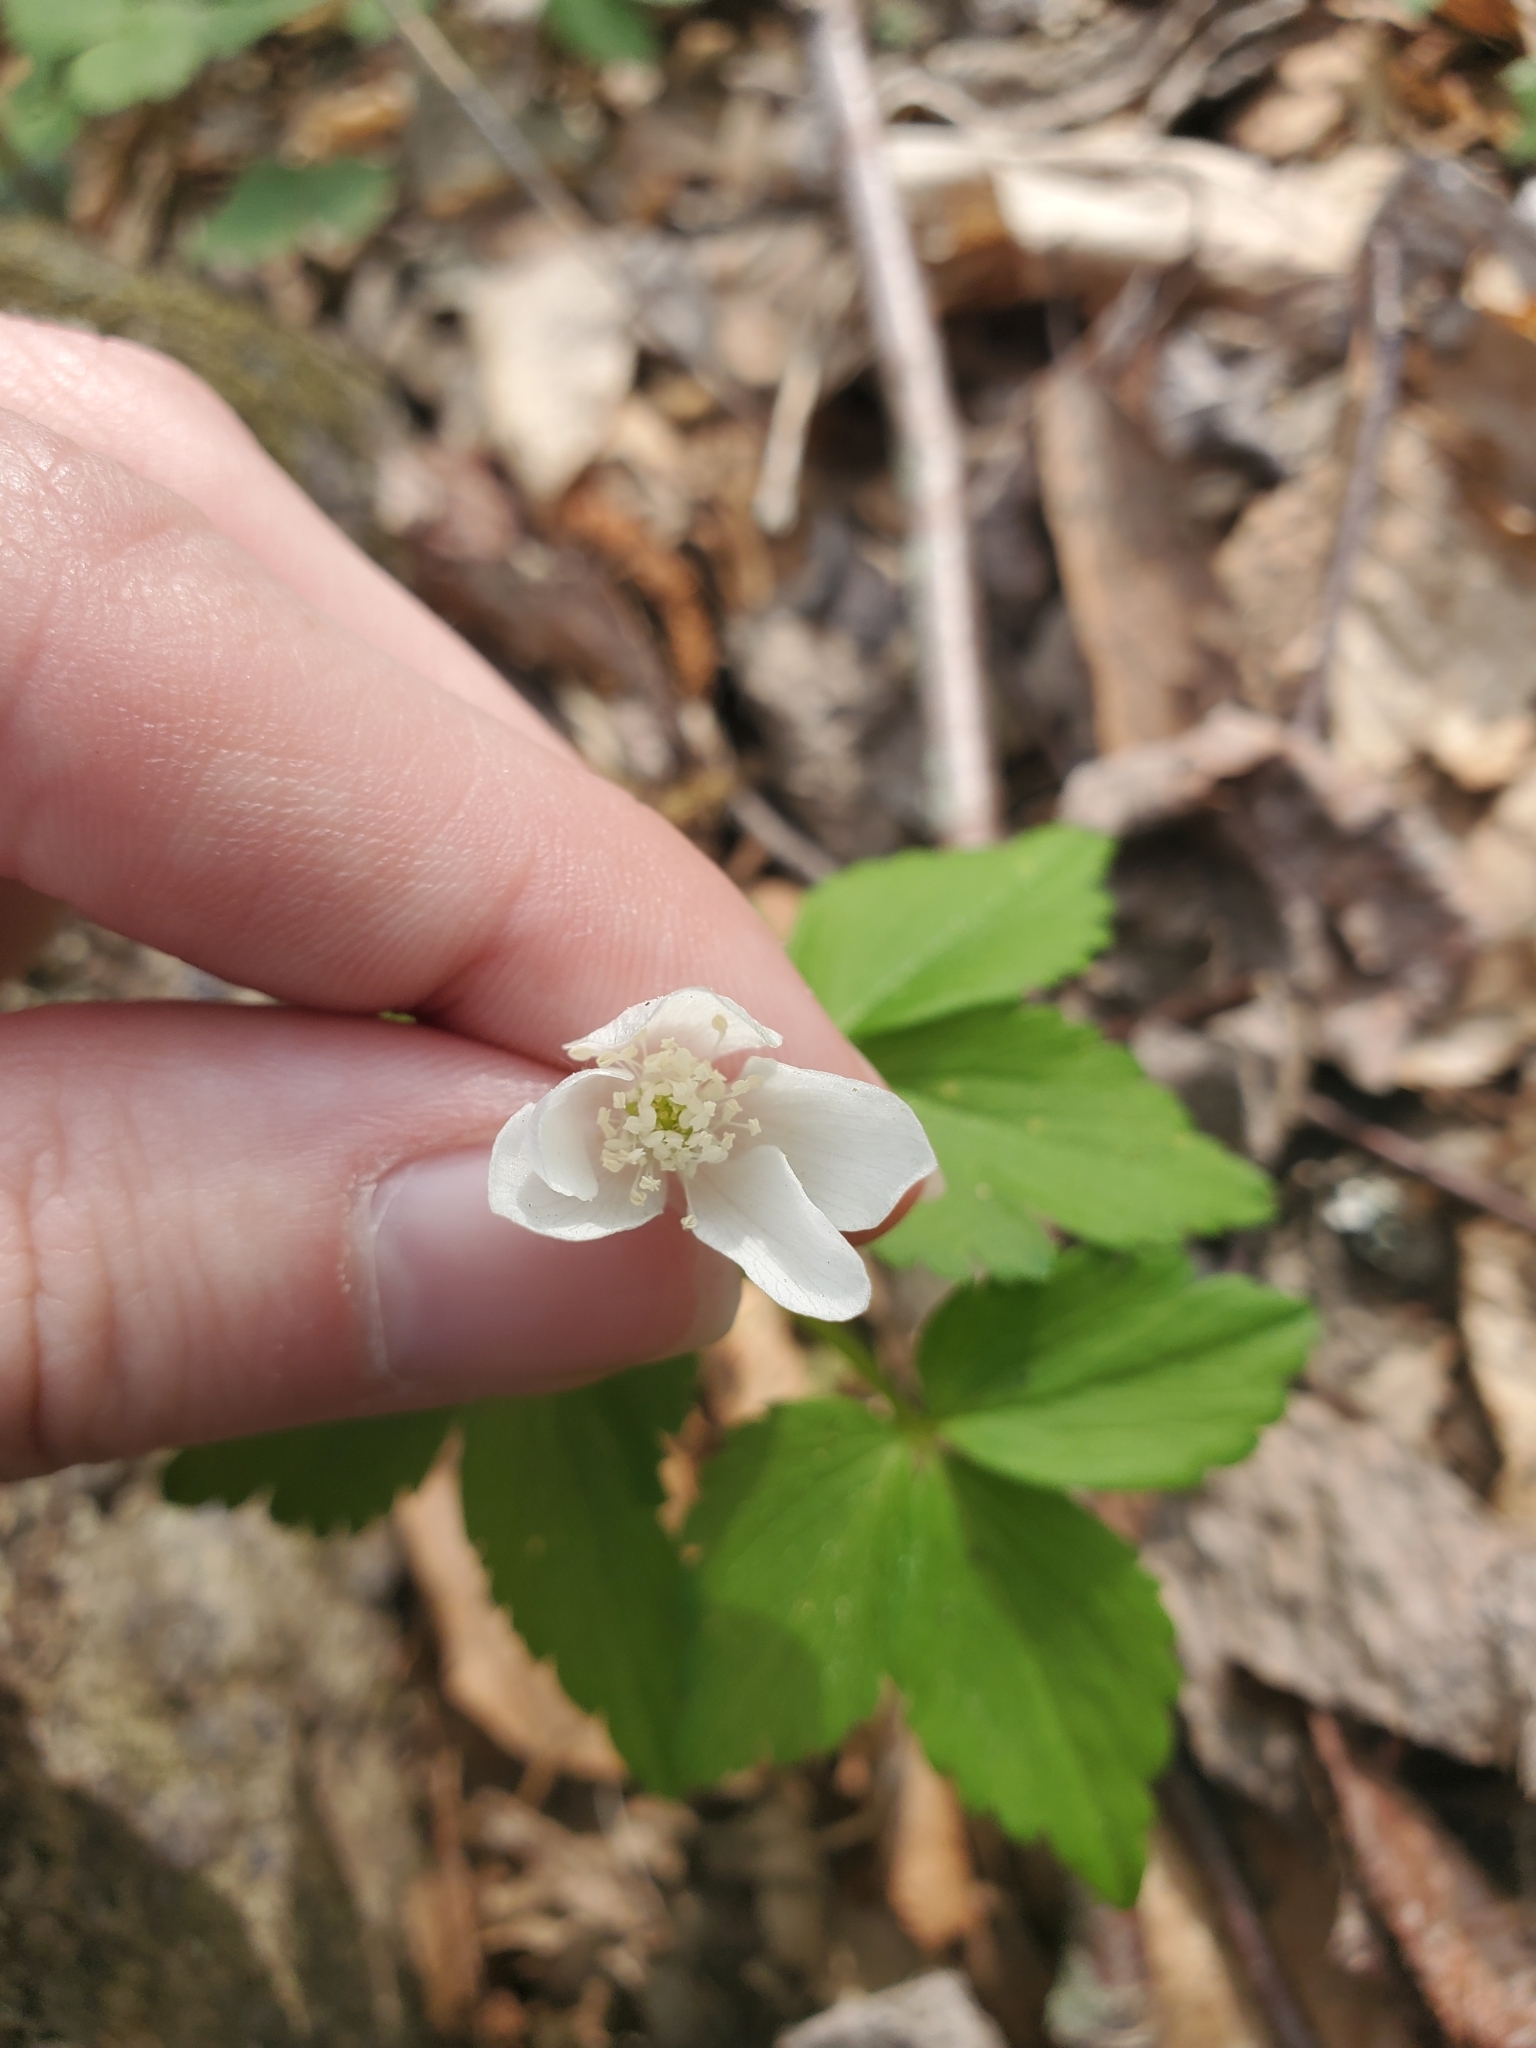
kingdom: Plantae
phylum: Tracheophyta
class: Magnoliopsida
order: Ranunculales
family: Ranunculaceae
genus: Anemone
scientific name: Anemone quinquefolia
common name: Wood anemone
